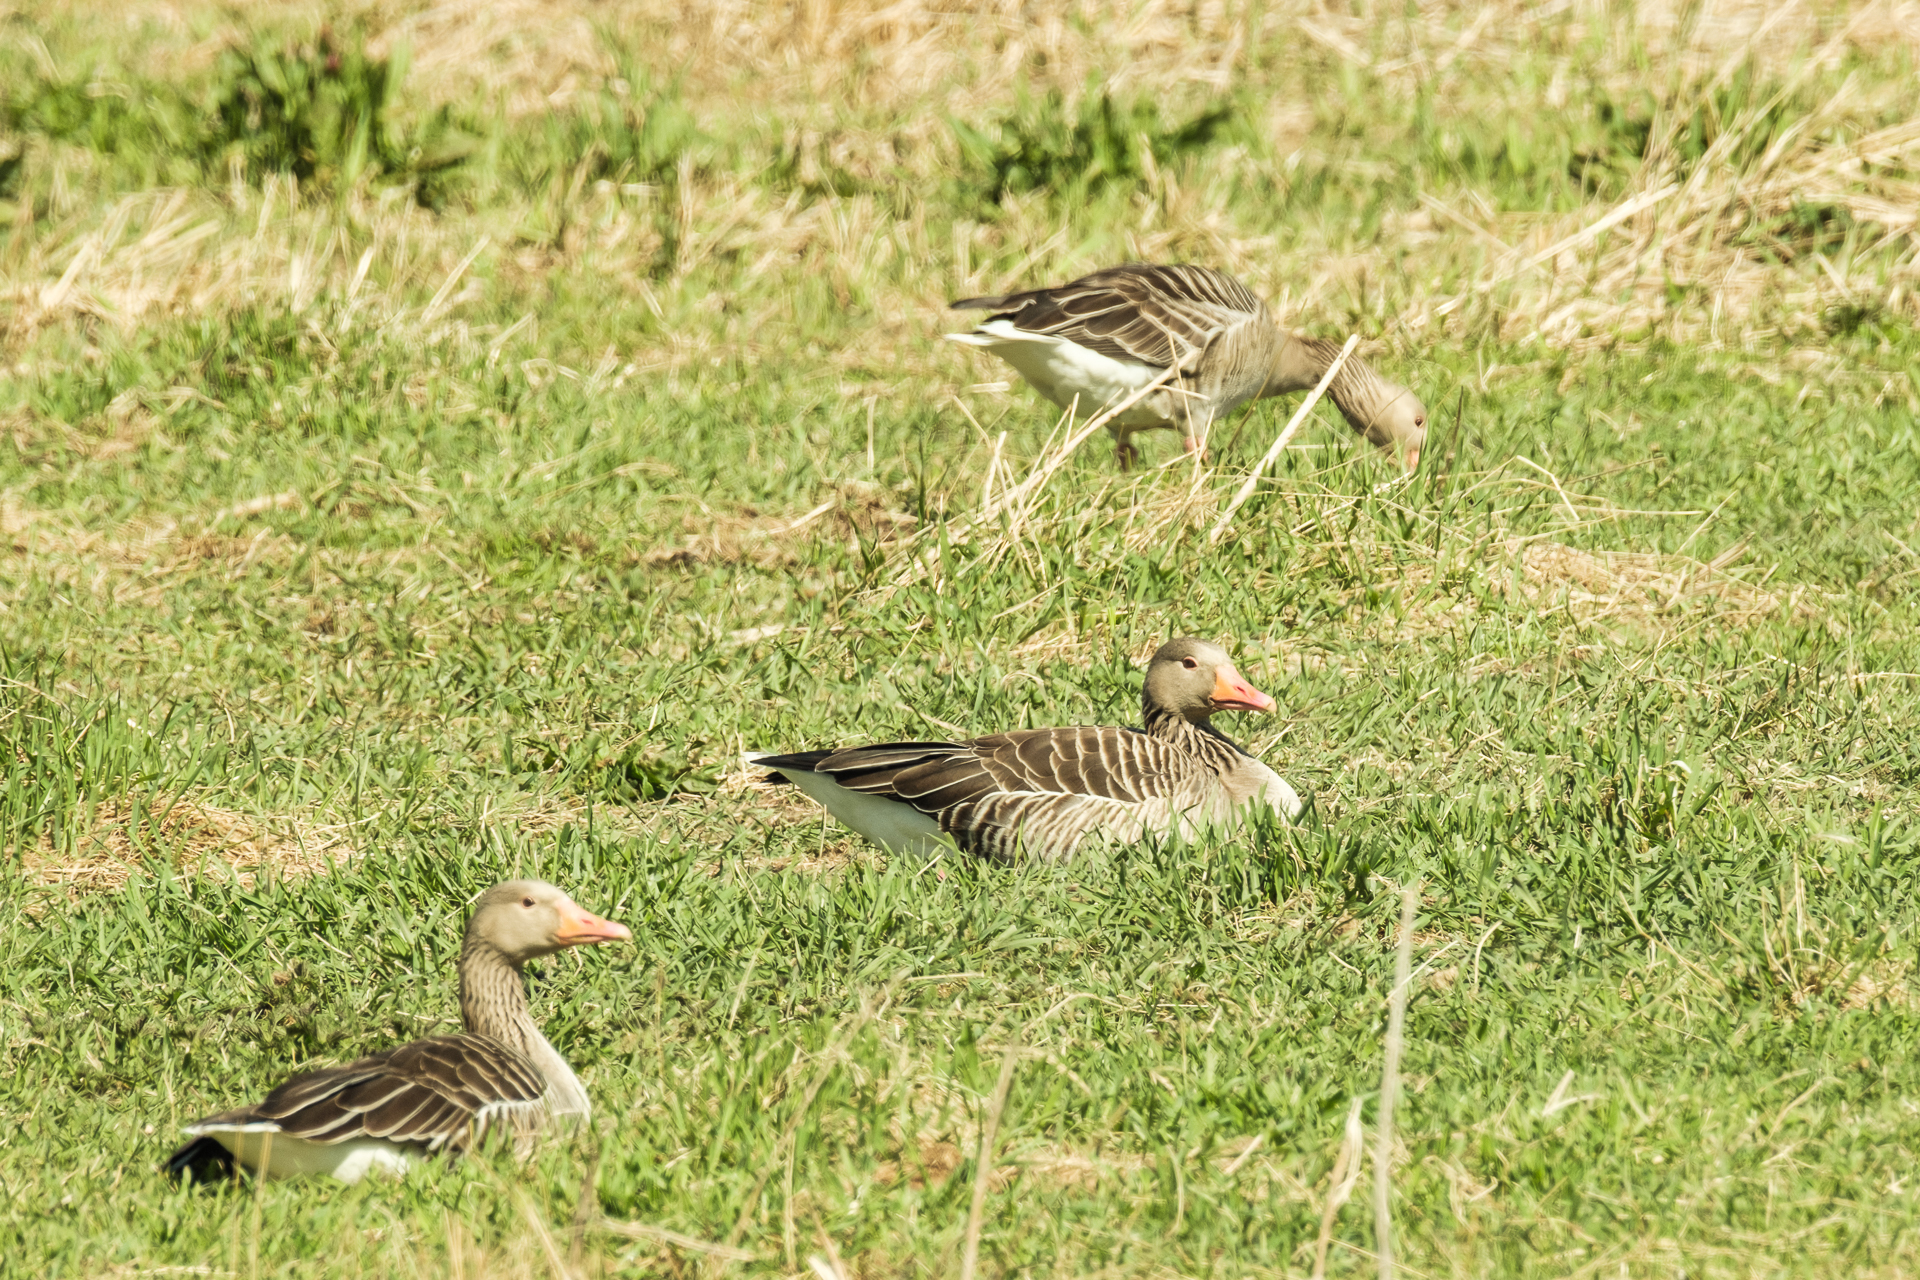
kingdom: Animalia
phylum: Chordata
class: Aves
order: Anseriformes
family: Anatidae
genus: Anser
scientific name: Anser anser
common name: Greylag goose
